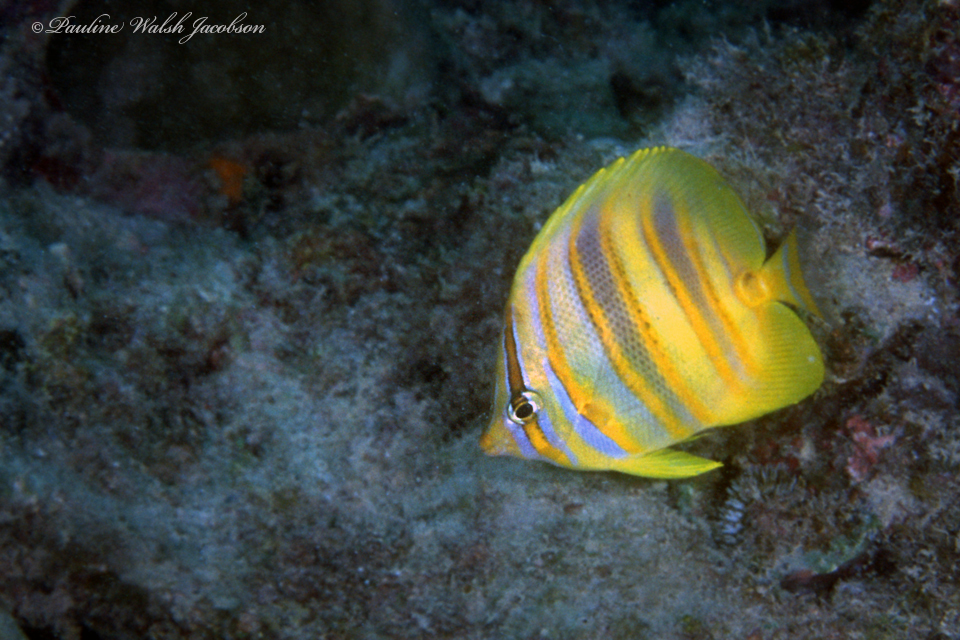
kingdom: Animalia
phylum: Chordata
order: Perciformes
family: Chaetodontidae
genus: Chaetodon
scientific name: Chaetodon rainfordi
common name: Rainford's butterflyfish
